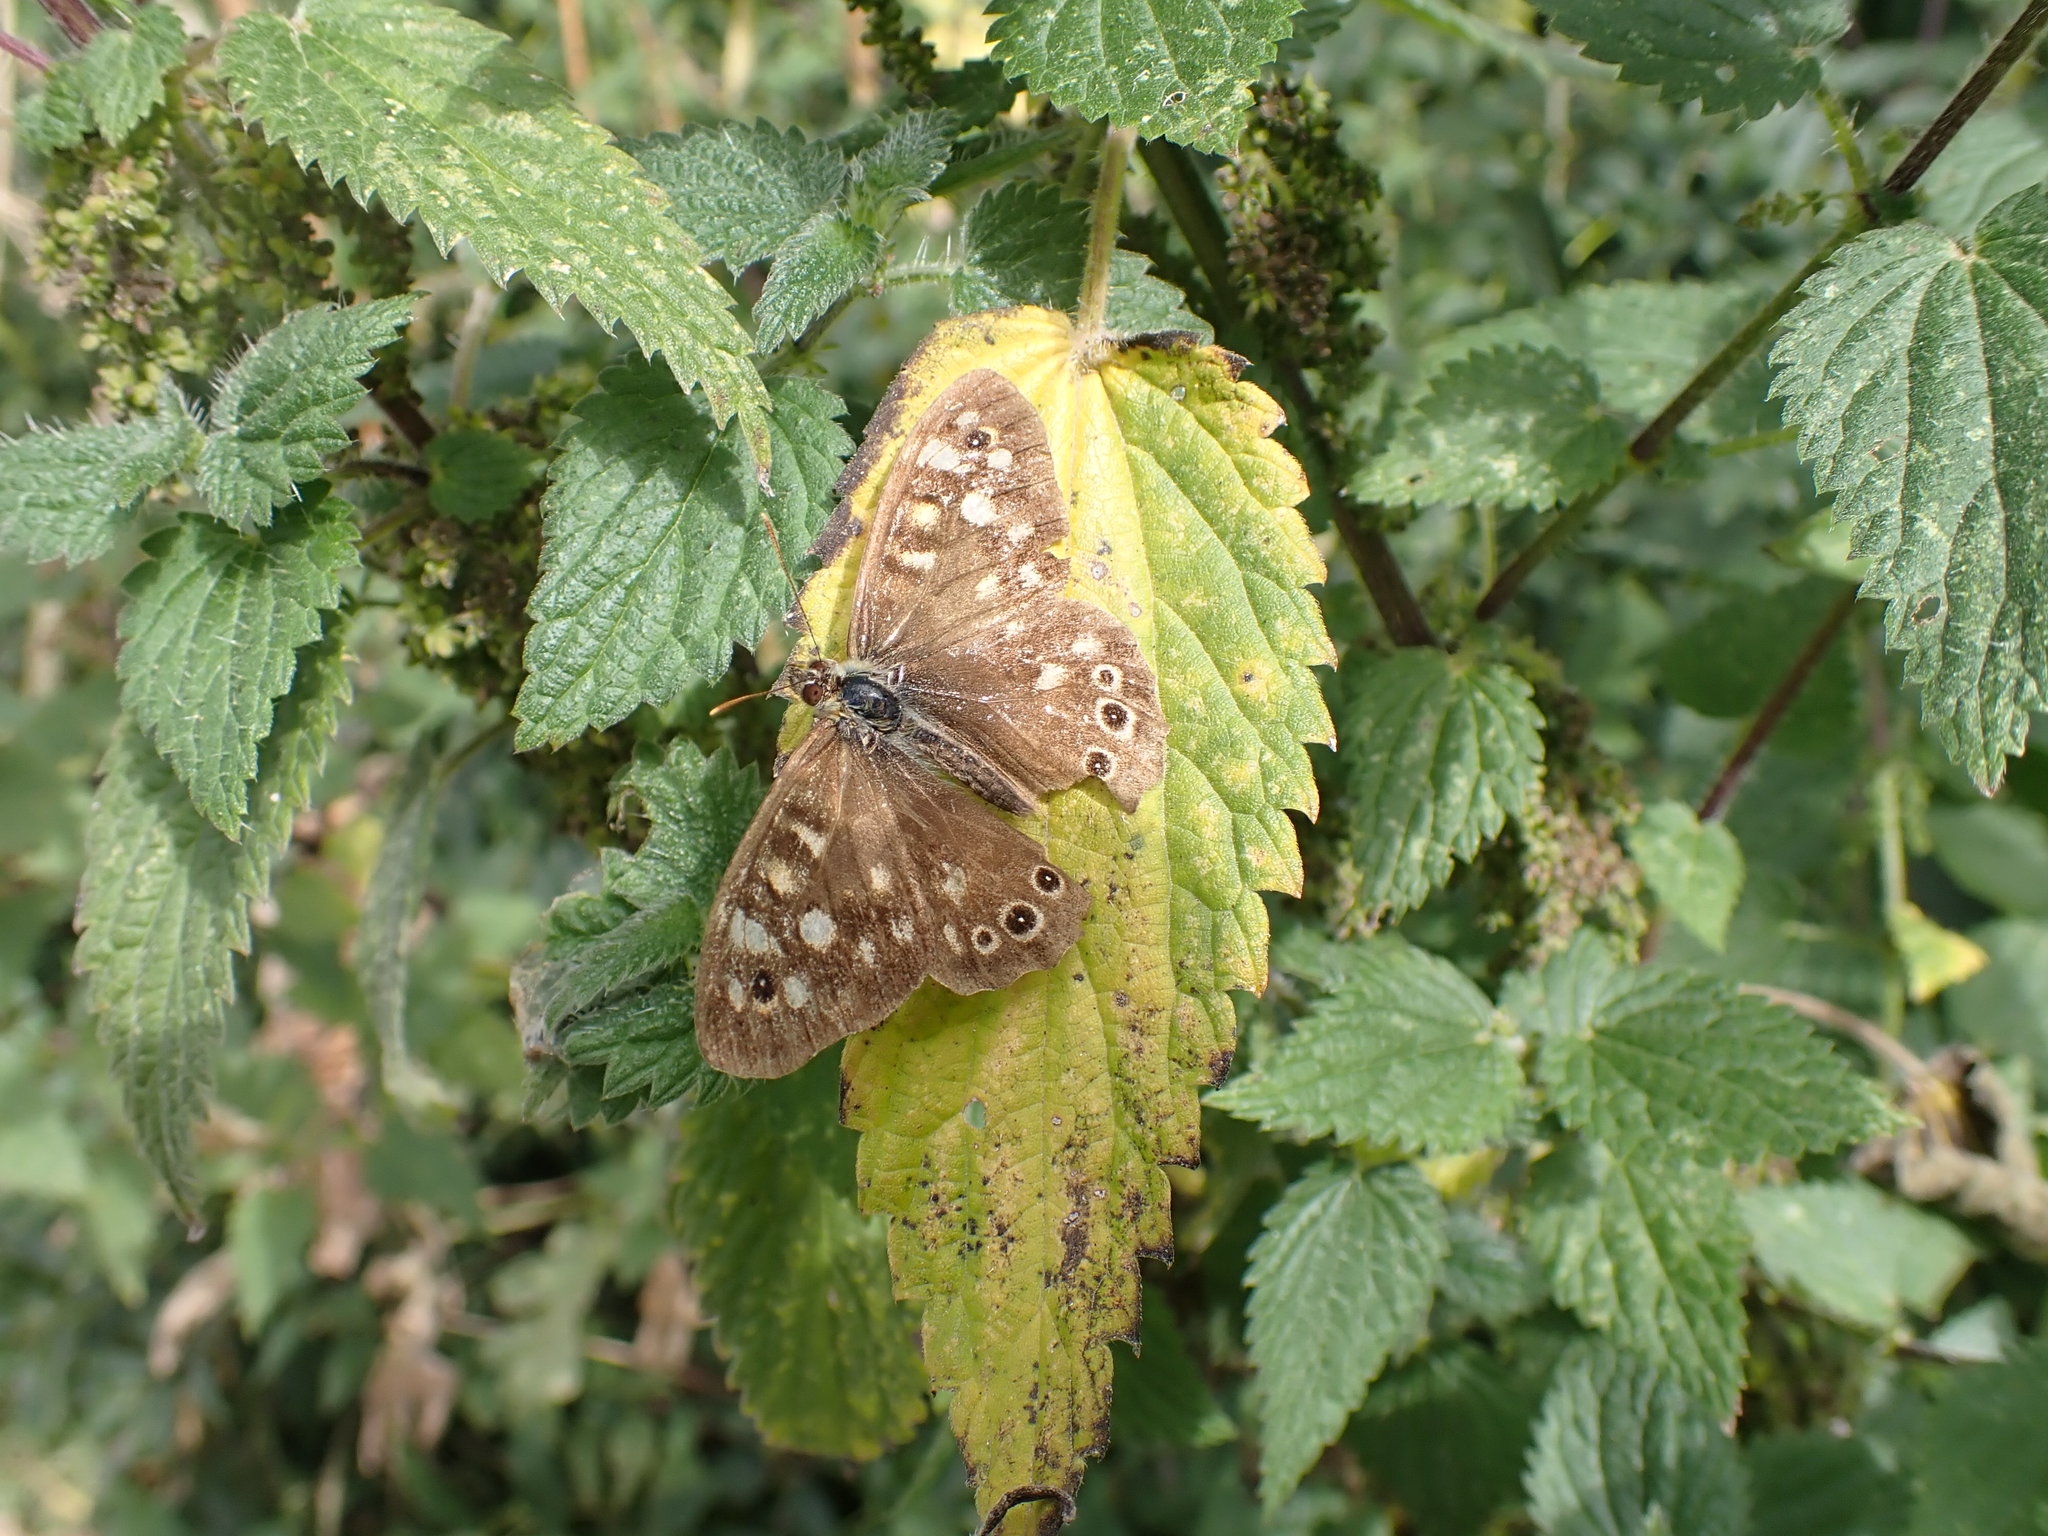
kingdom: Animalia
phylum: Arthropoda
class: Insecta
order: Lepidoptera
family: Nymphalidae
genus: Pararge
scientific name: Pararge aegeria
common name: Speckled wood
